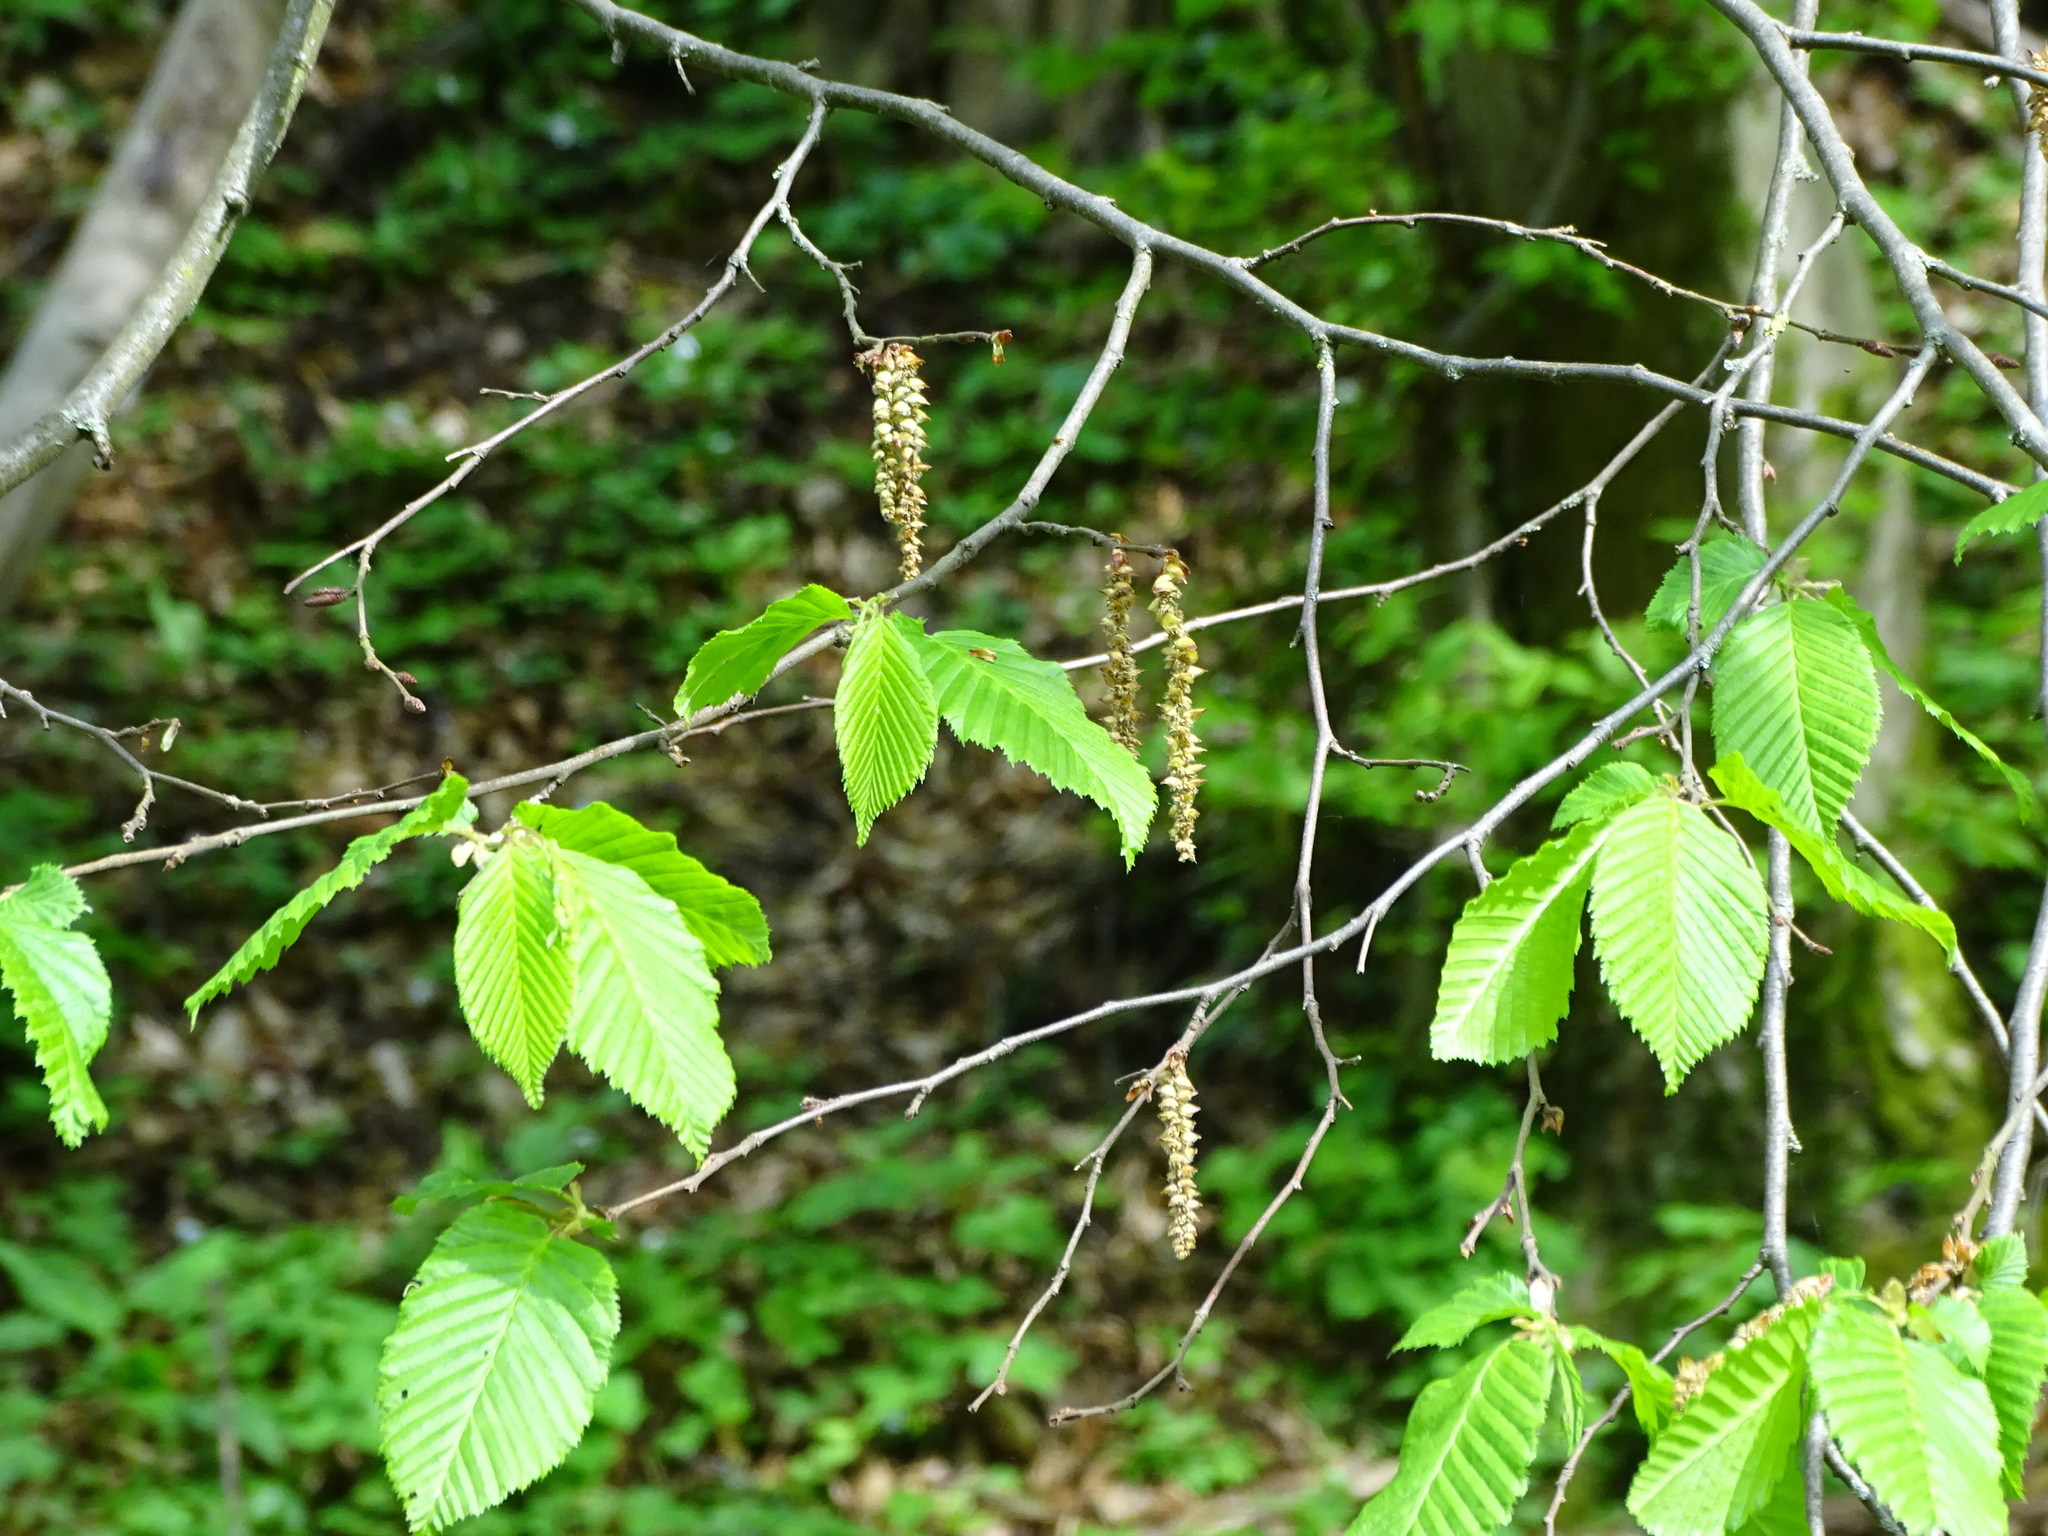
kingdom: Plantae
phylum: Tracheophyta
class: Magnoliopsida
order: Fagales
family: Betulaceae
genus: Carpinus
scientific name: Carpinus betulus
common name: Hornbeam
